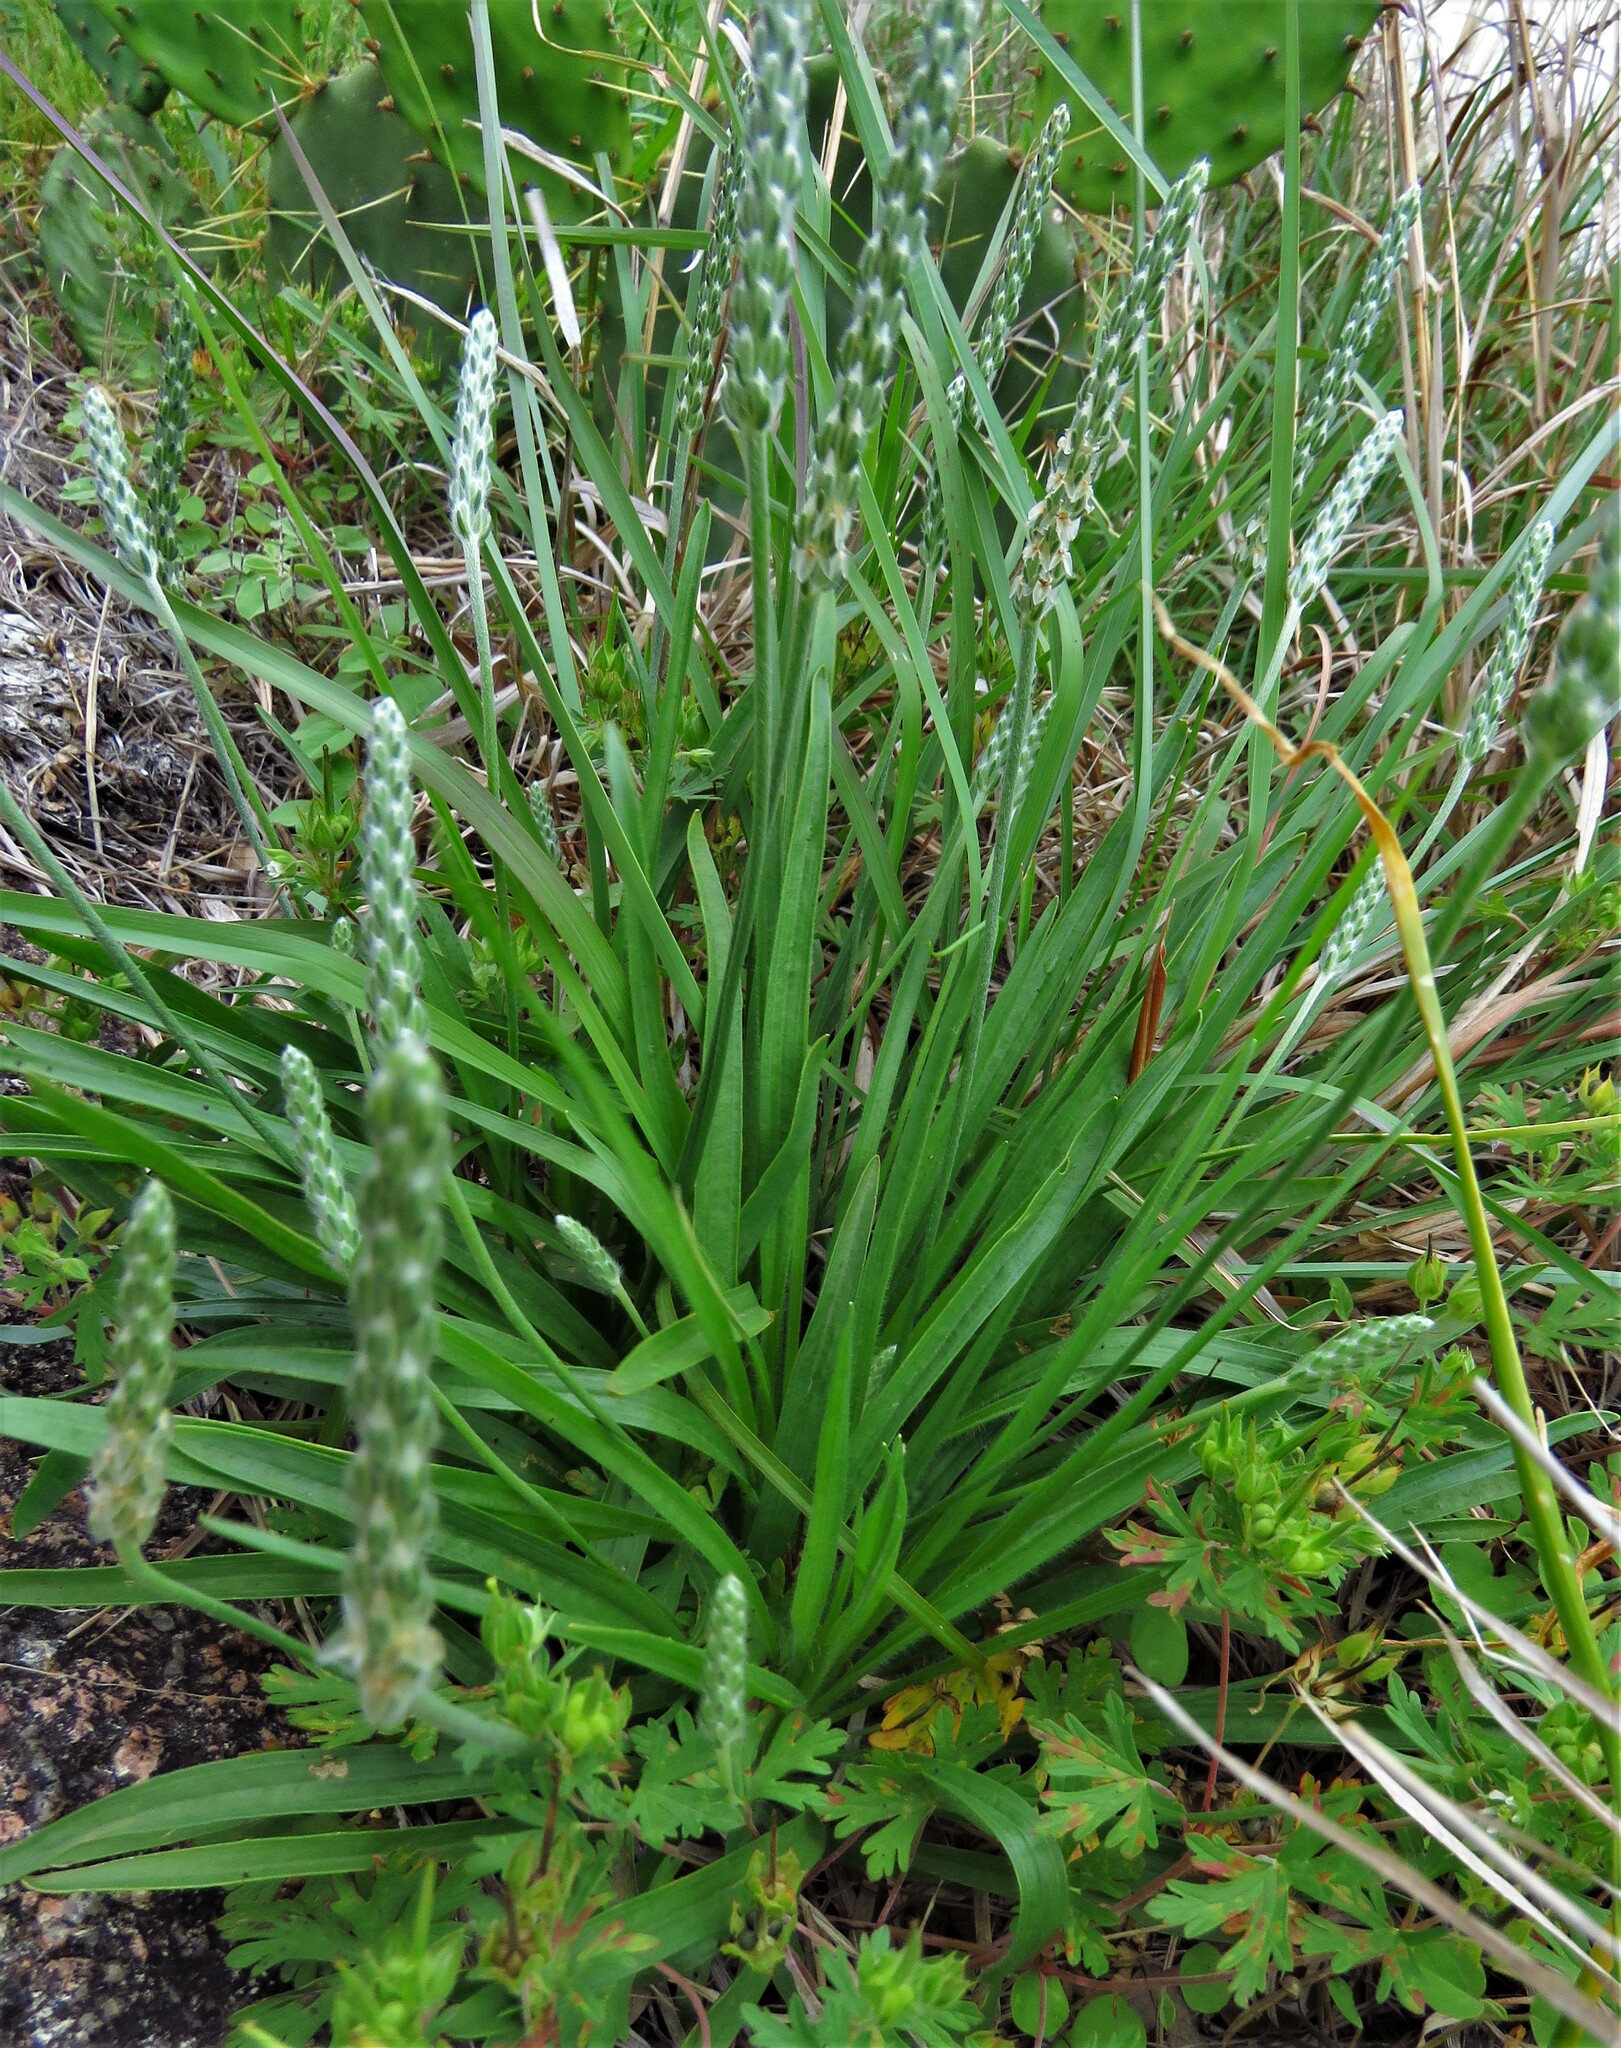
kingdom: Plantae
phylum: Tracheophyta
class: Magnoliopsida
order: Lamiales
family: Plantaginaceae
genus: Plantago
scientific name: Plantago wrightiana
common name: Wright's plantain
